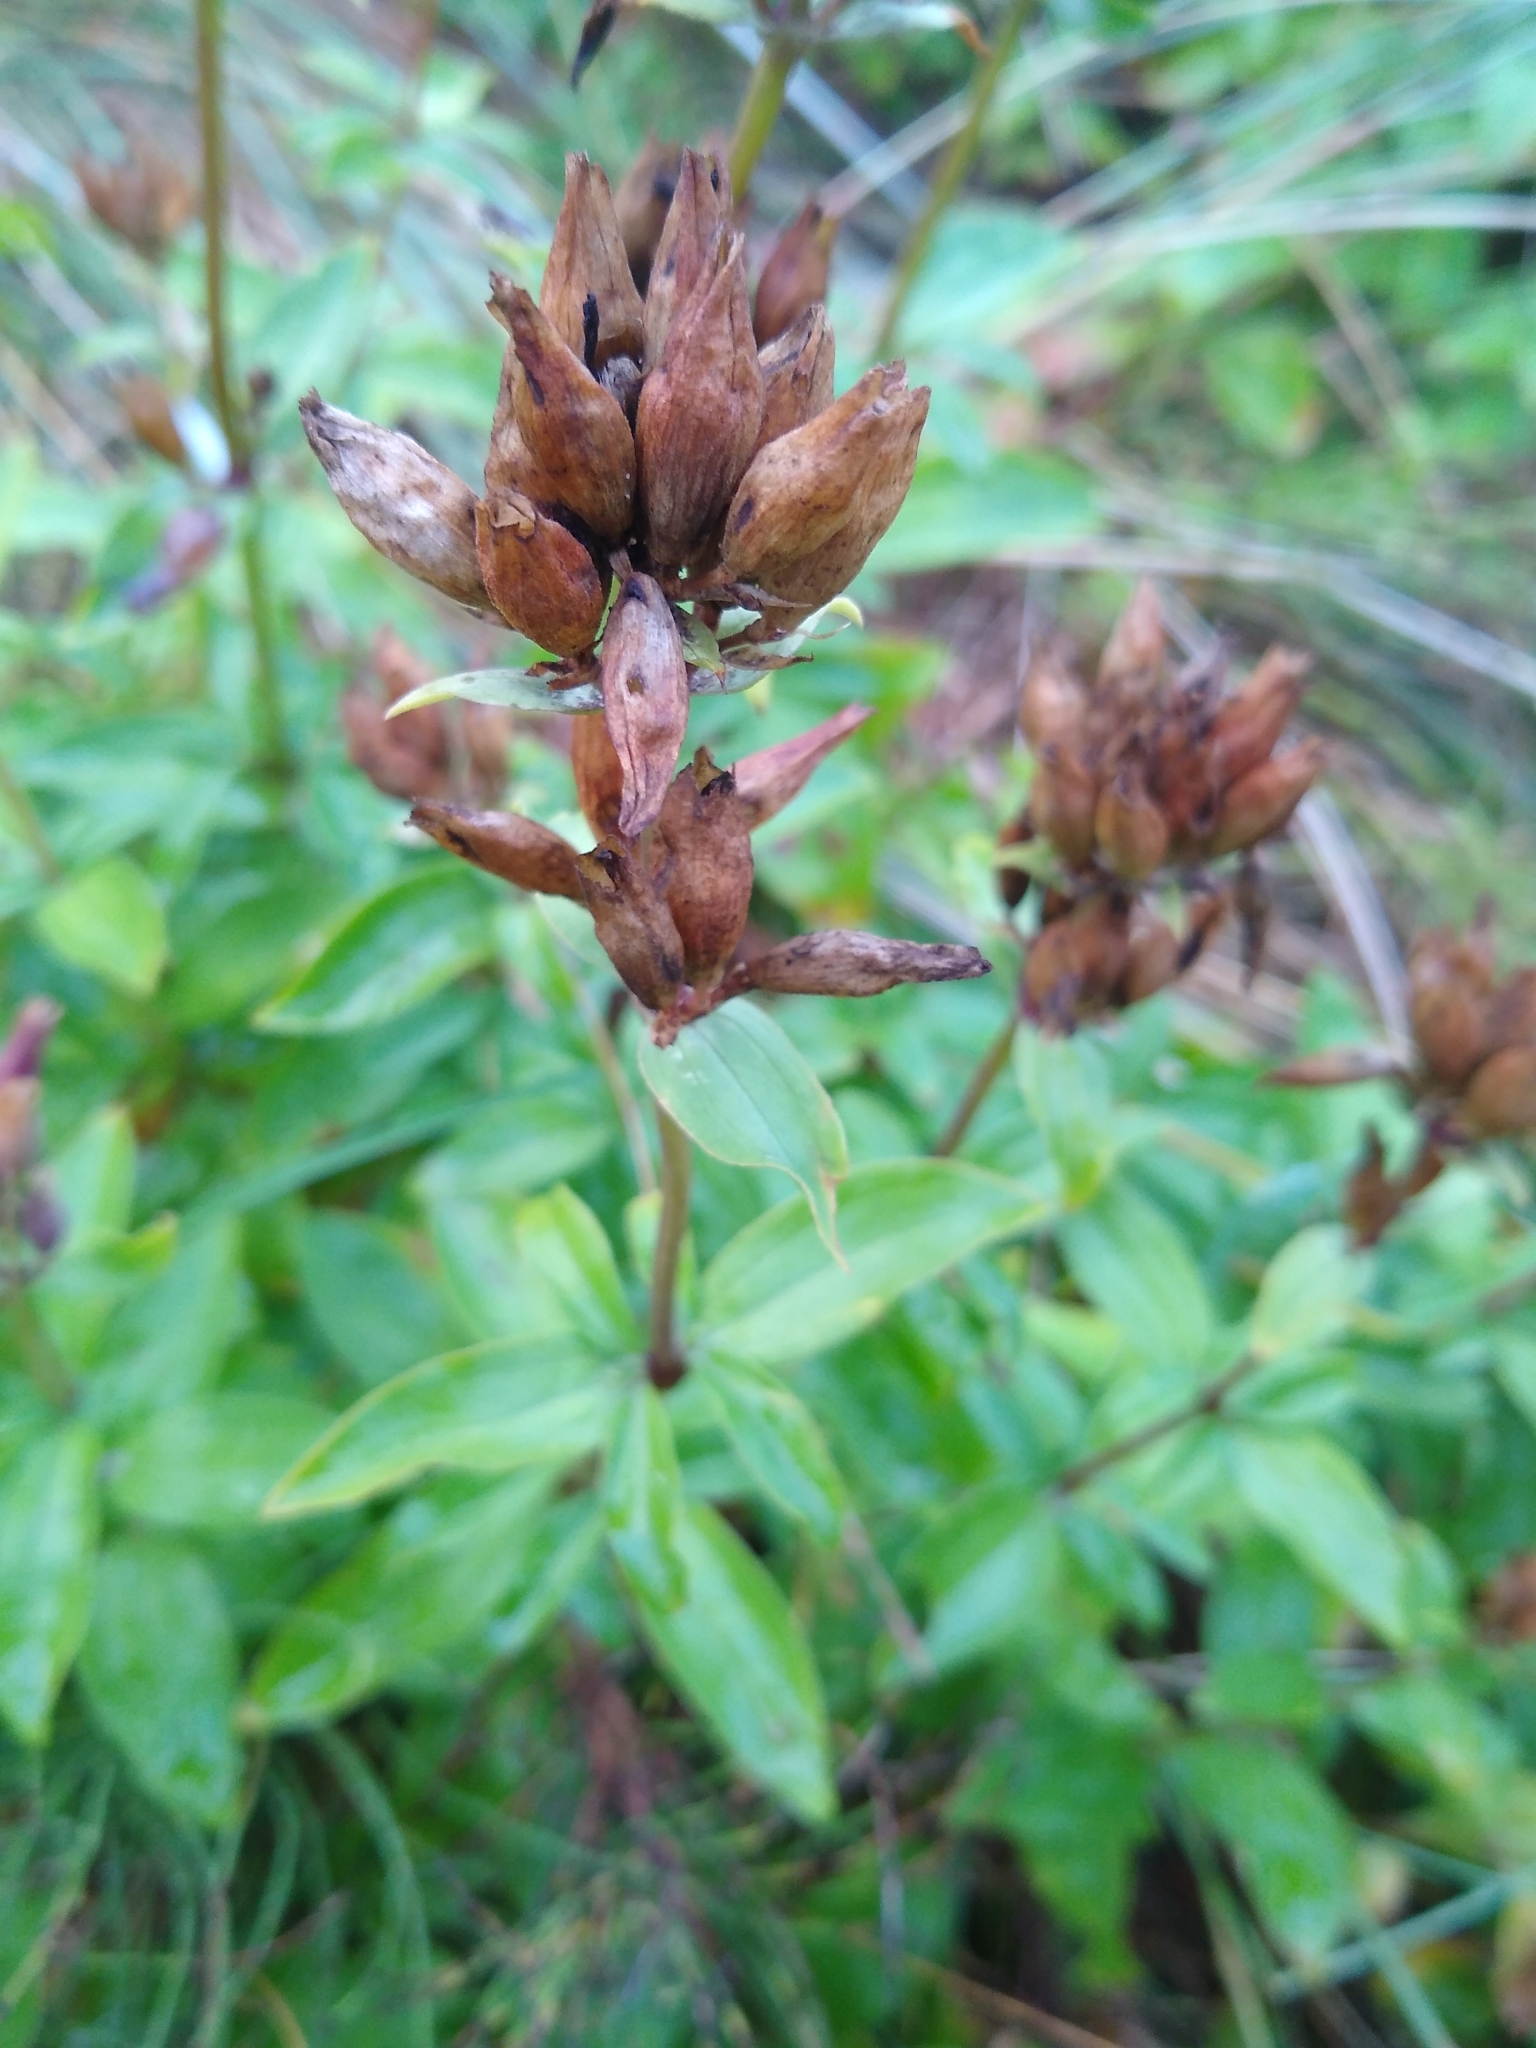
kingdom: Plantae
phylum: Tracheophyta
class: Magnoliopsida
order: Caryophyllales
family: Caryophyllaceae
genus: Saponaria
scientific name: Saponaria officinalis
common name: Soapwort
